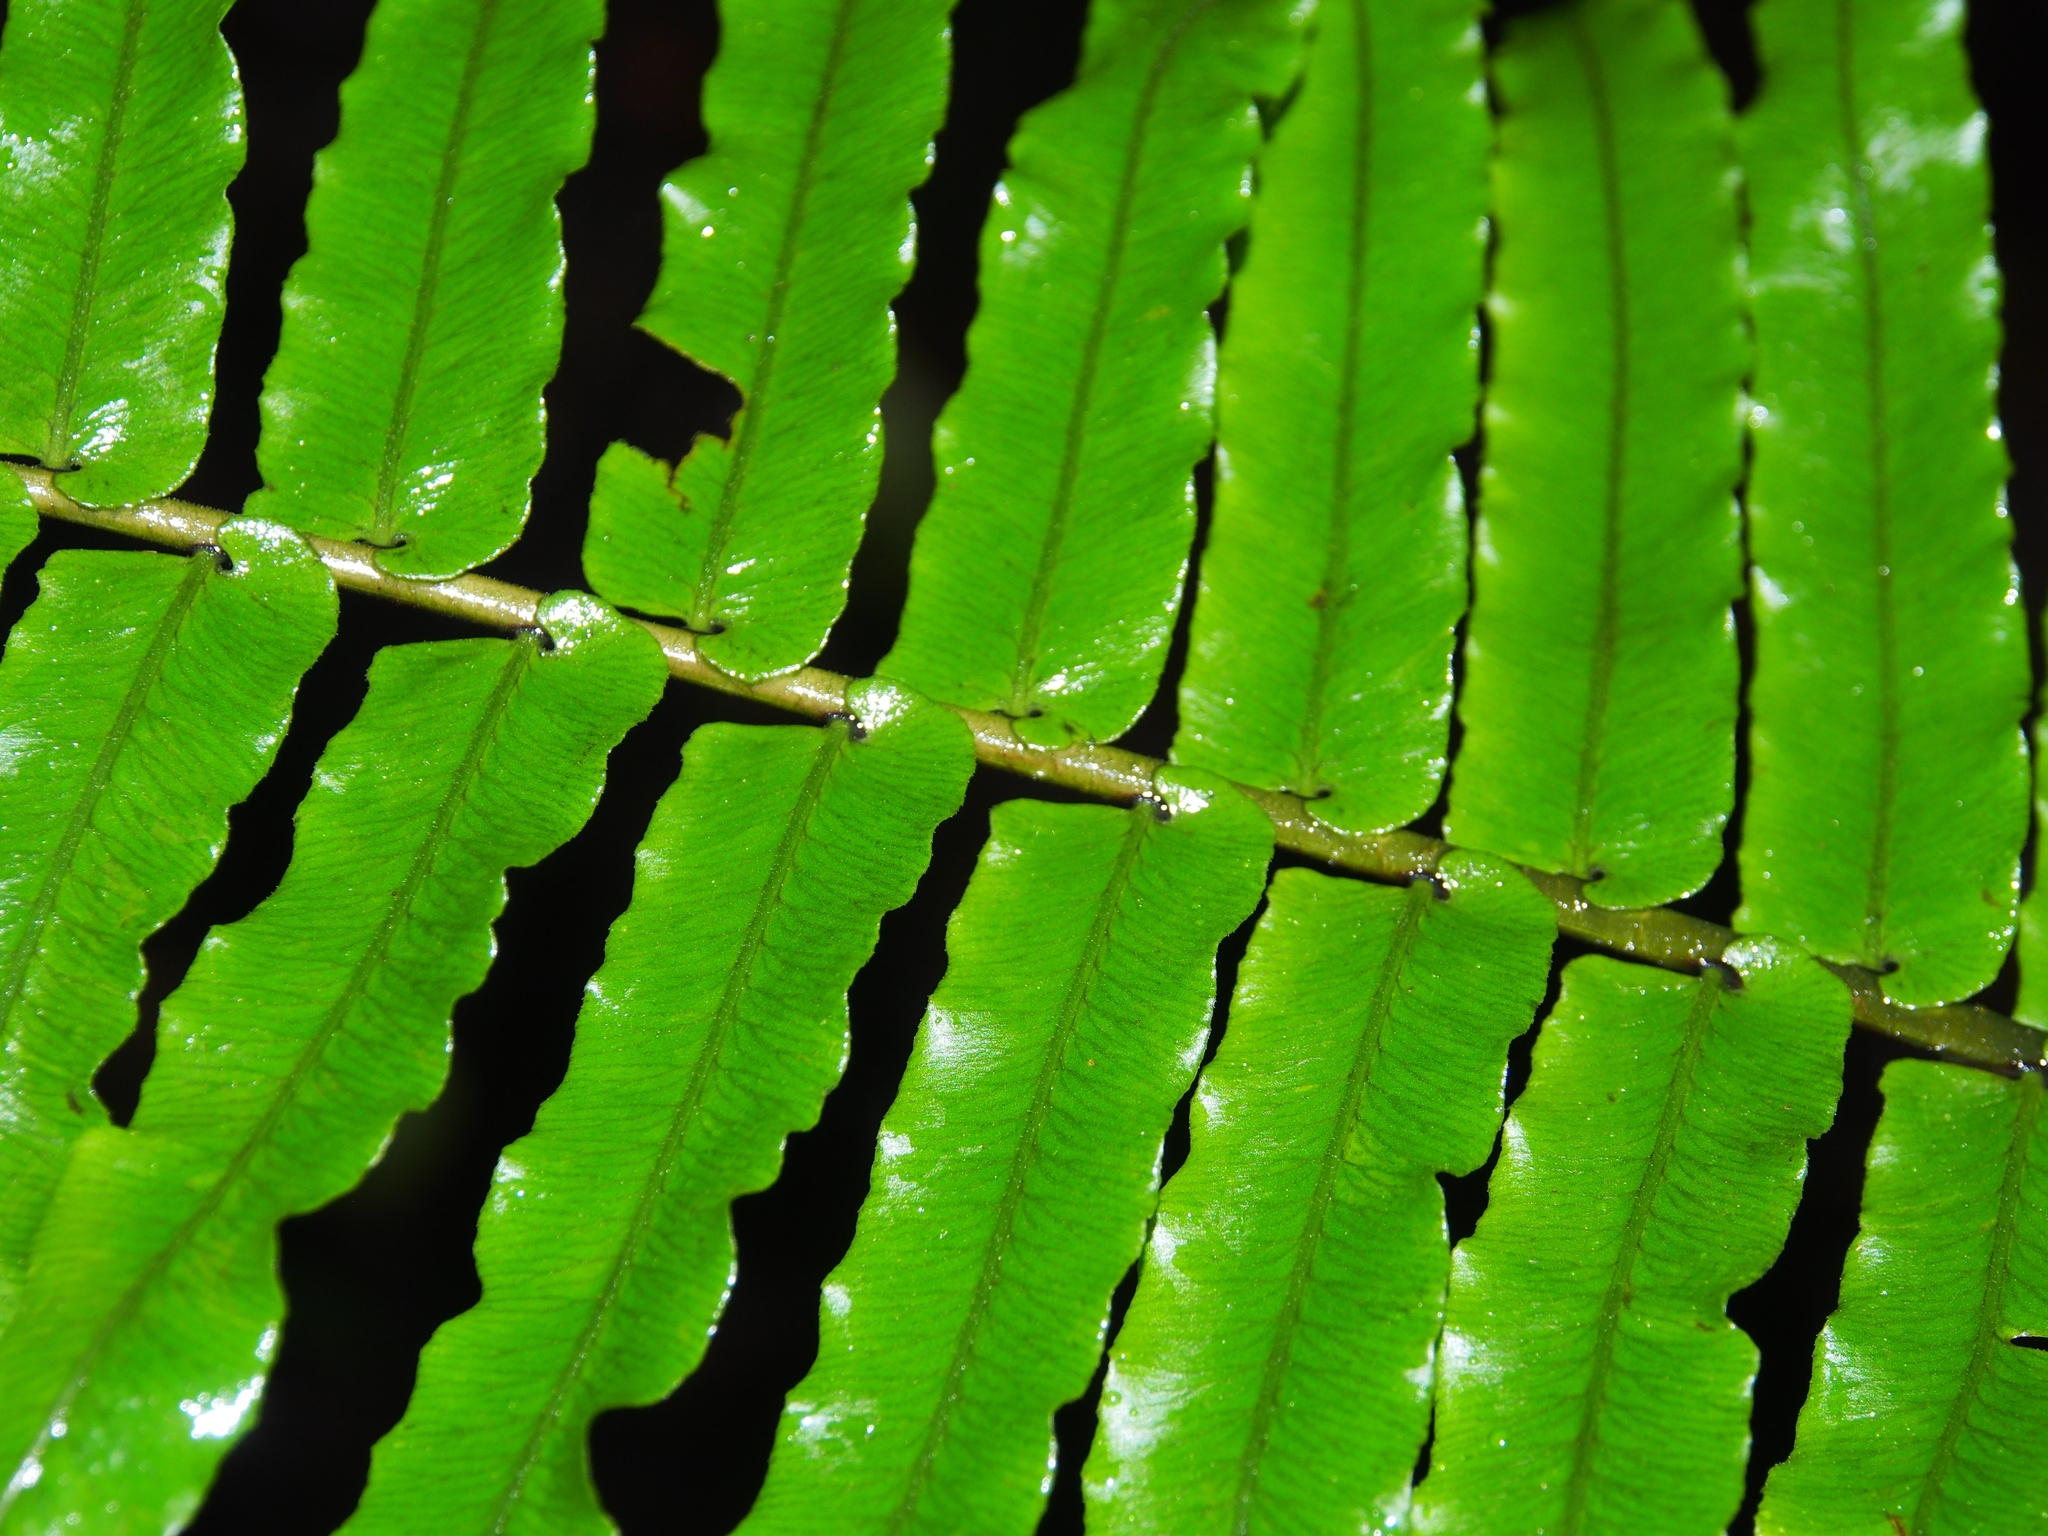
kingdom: Plantae
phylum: Tracheophyta
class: Polypodiopsida
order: Polypodiales
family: Lomariopsidaceae
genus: Cyclopeltis
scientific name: Cyclopeltis semicordata
